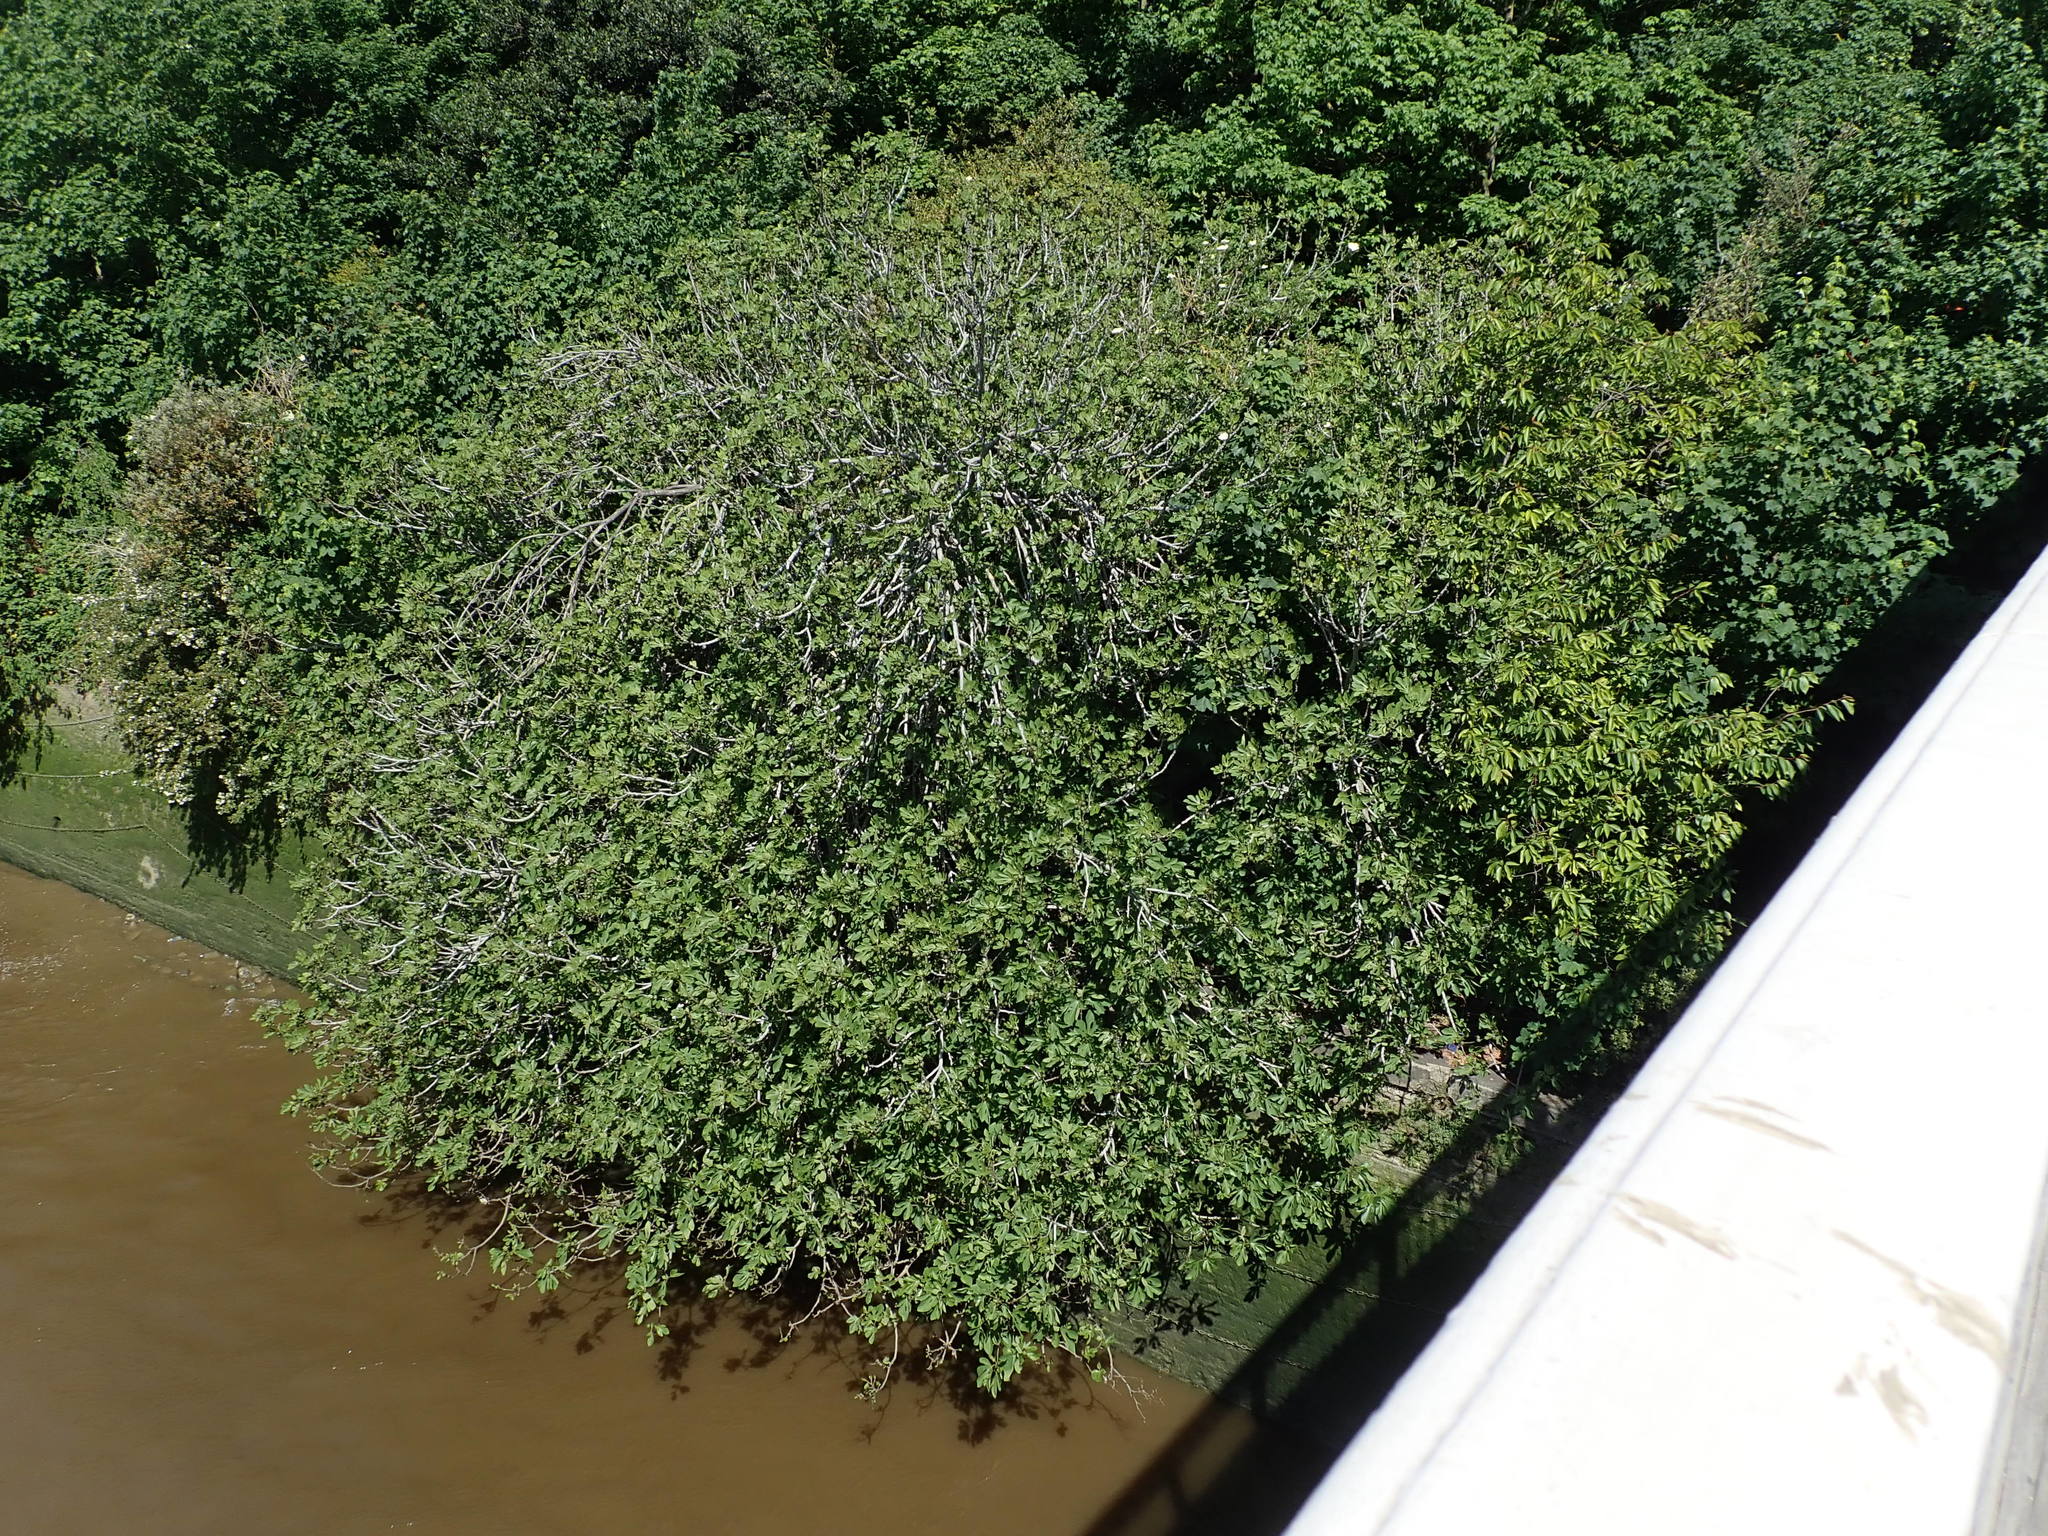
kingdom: Plantae
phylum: Tracheophyta
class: Magnoliopsida
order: Rosales
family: Moraceae
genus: Ficus
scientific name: Ficus carica
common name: Fig
